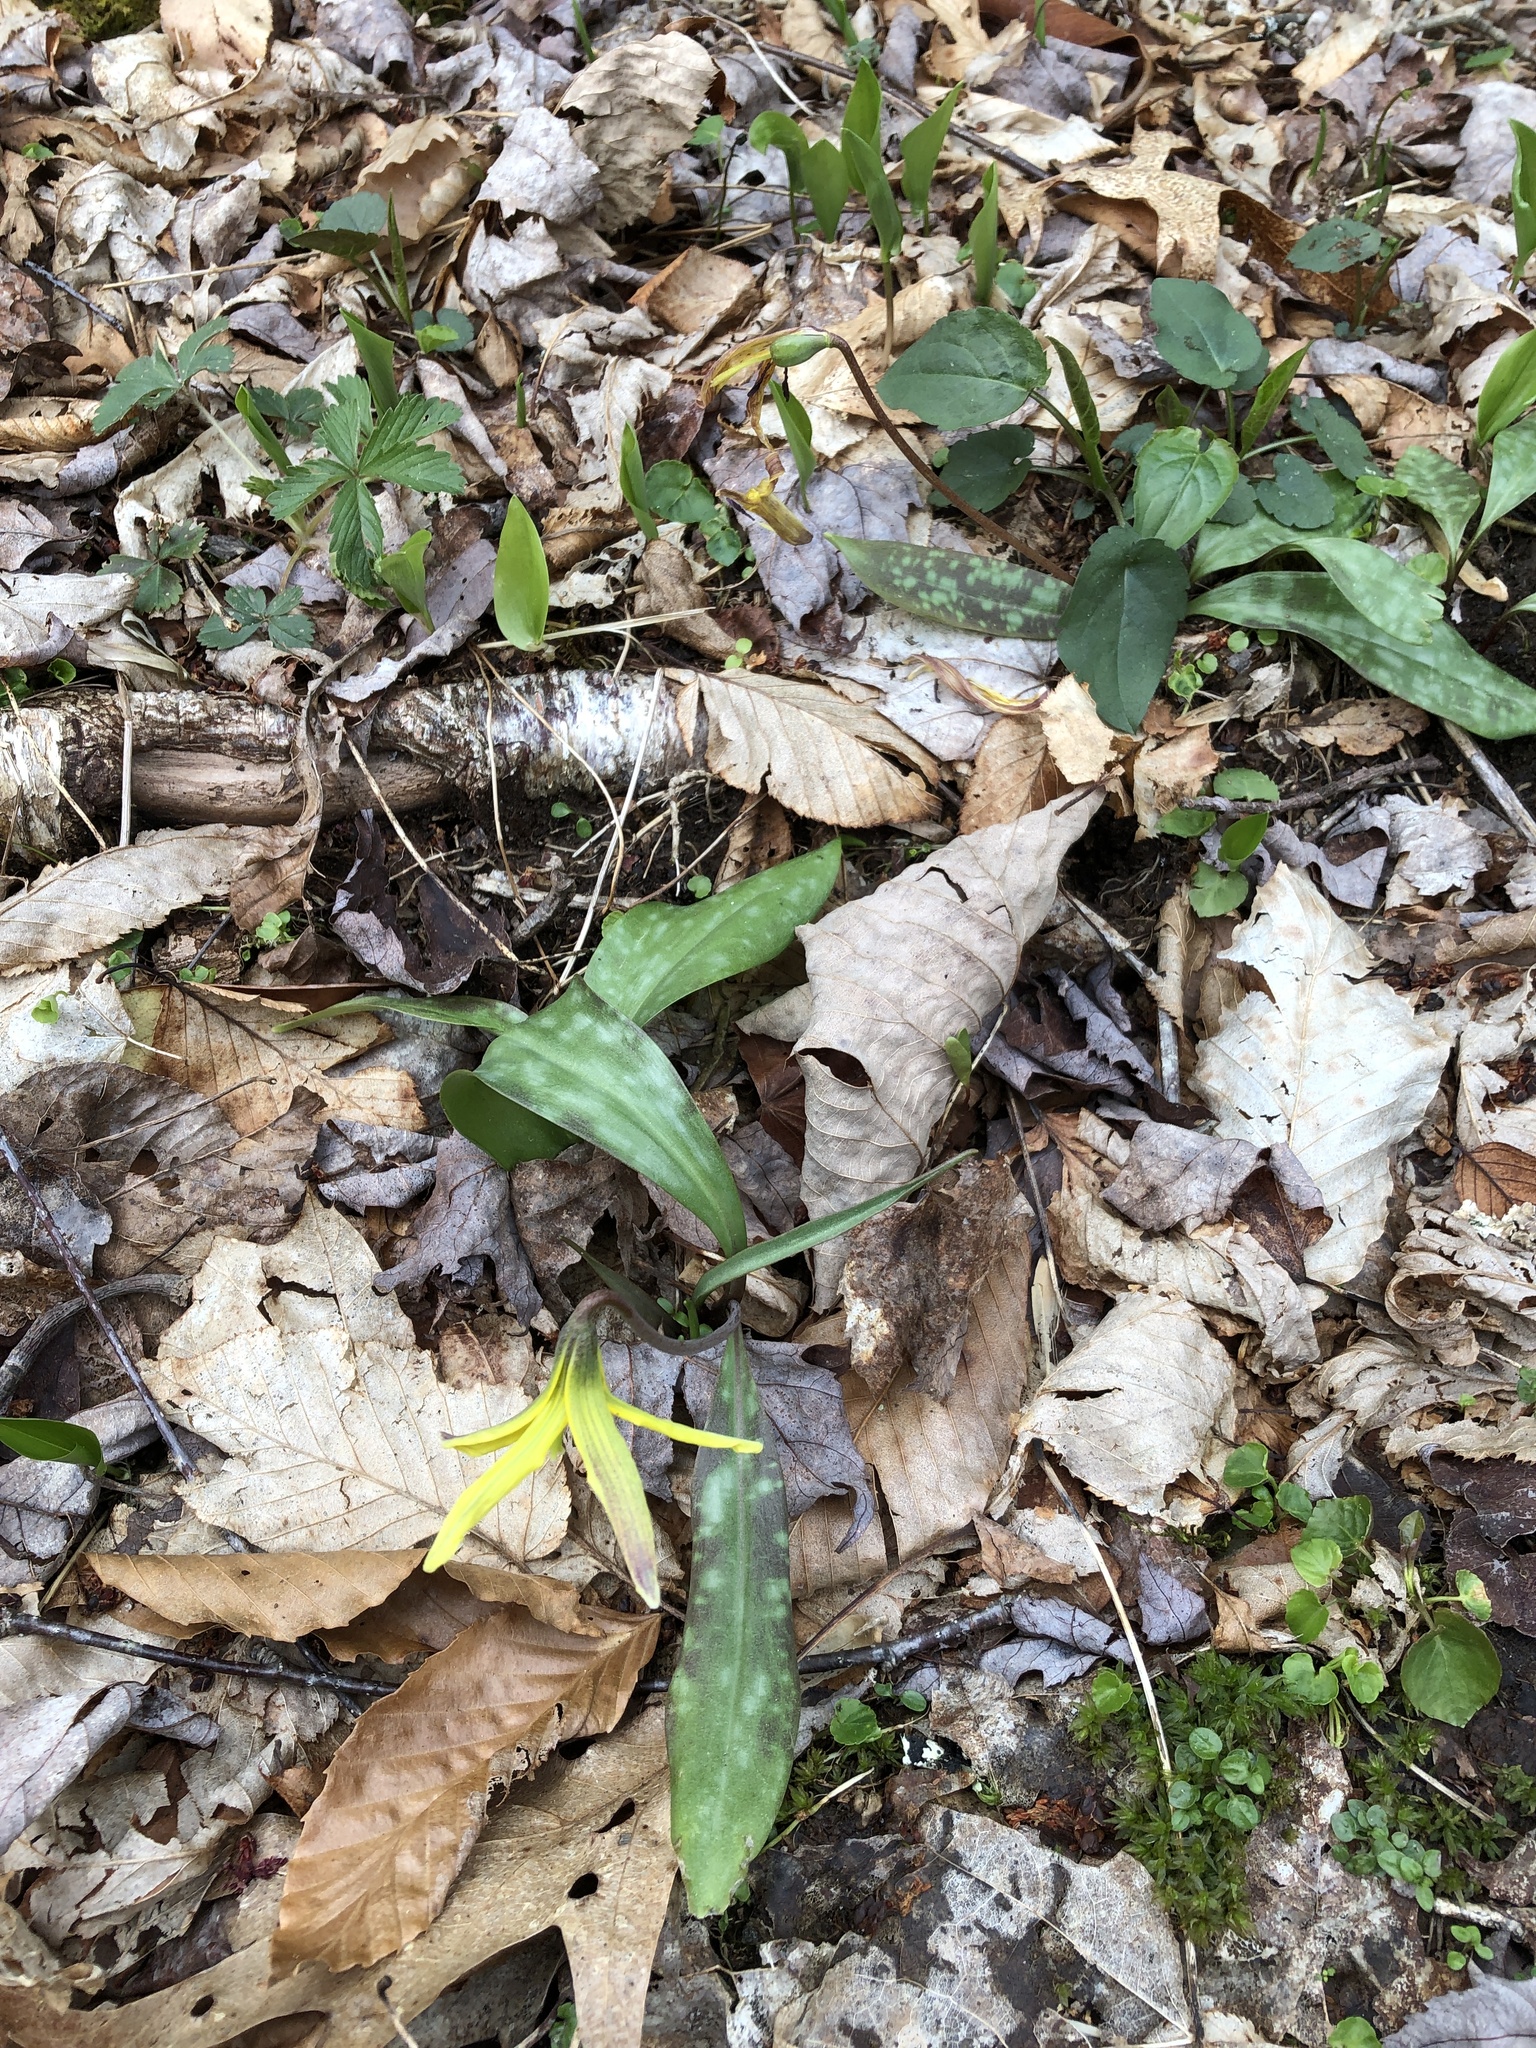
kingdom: Plantae
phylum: Tracheophyta
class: Liliopsida
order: Liliales
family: Liliaceae
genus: Erythronium
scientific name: Erythronium umbilicatum
